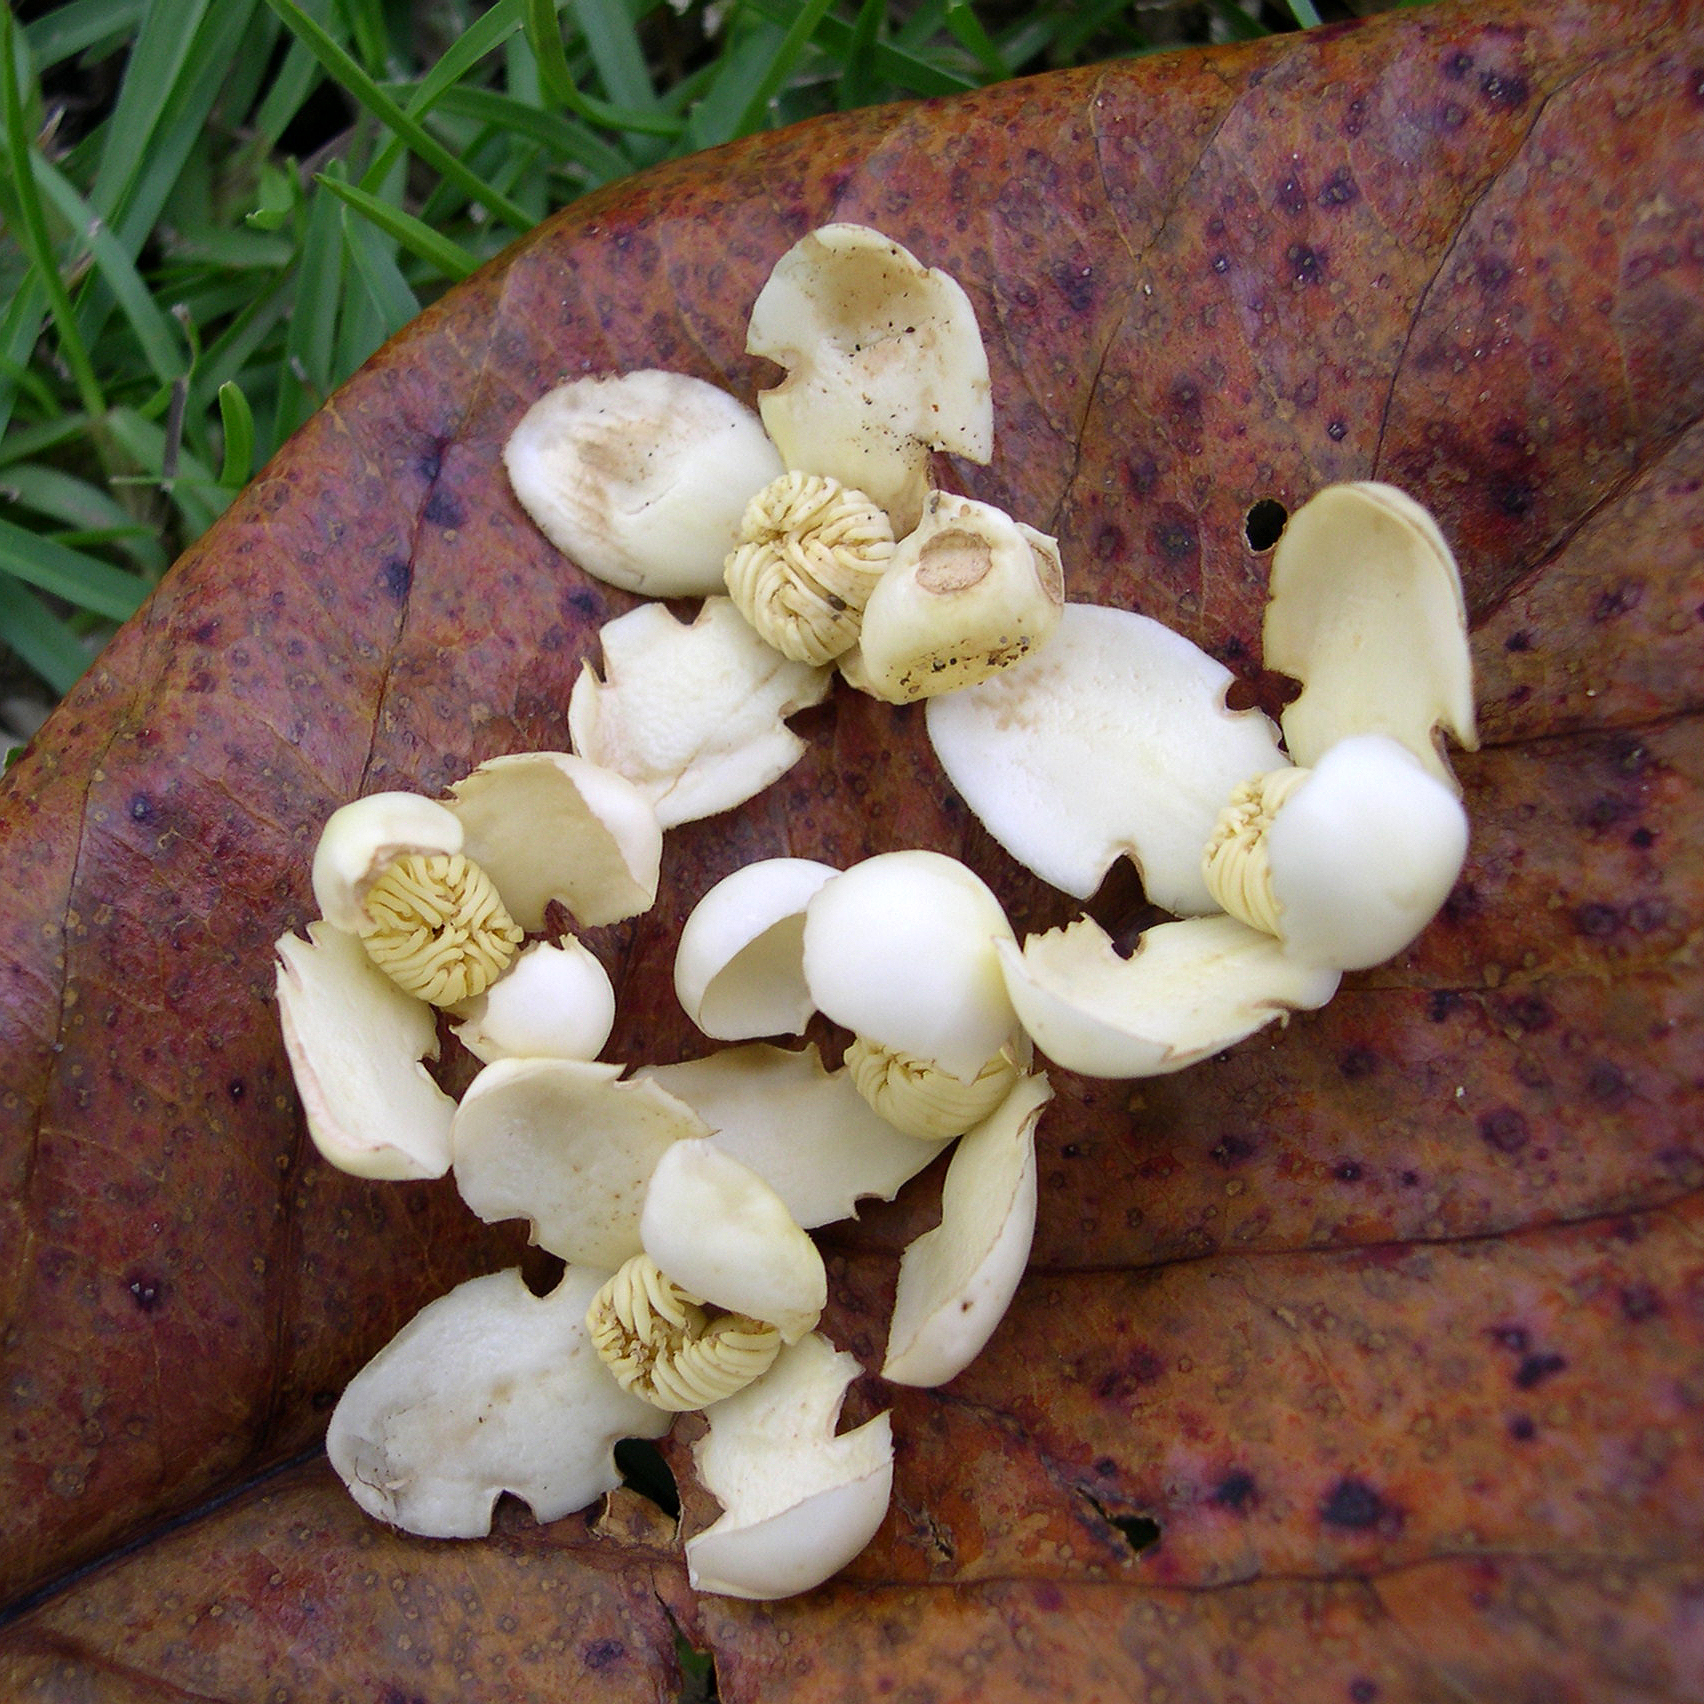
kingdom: Plantae
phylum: Tracheophyta
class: Magnoliopsida
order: Ericales
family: Lecythidaceae
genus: Grias
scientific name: Grias cauliflora
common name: Anchovy-pear
